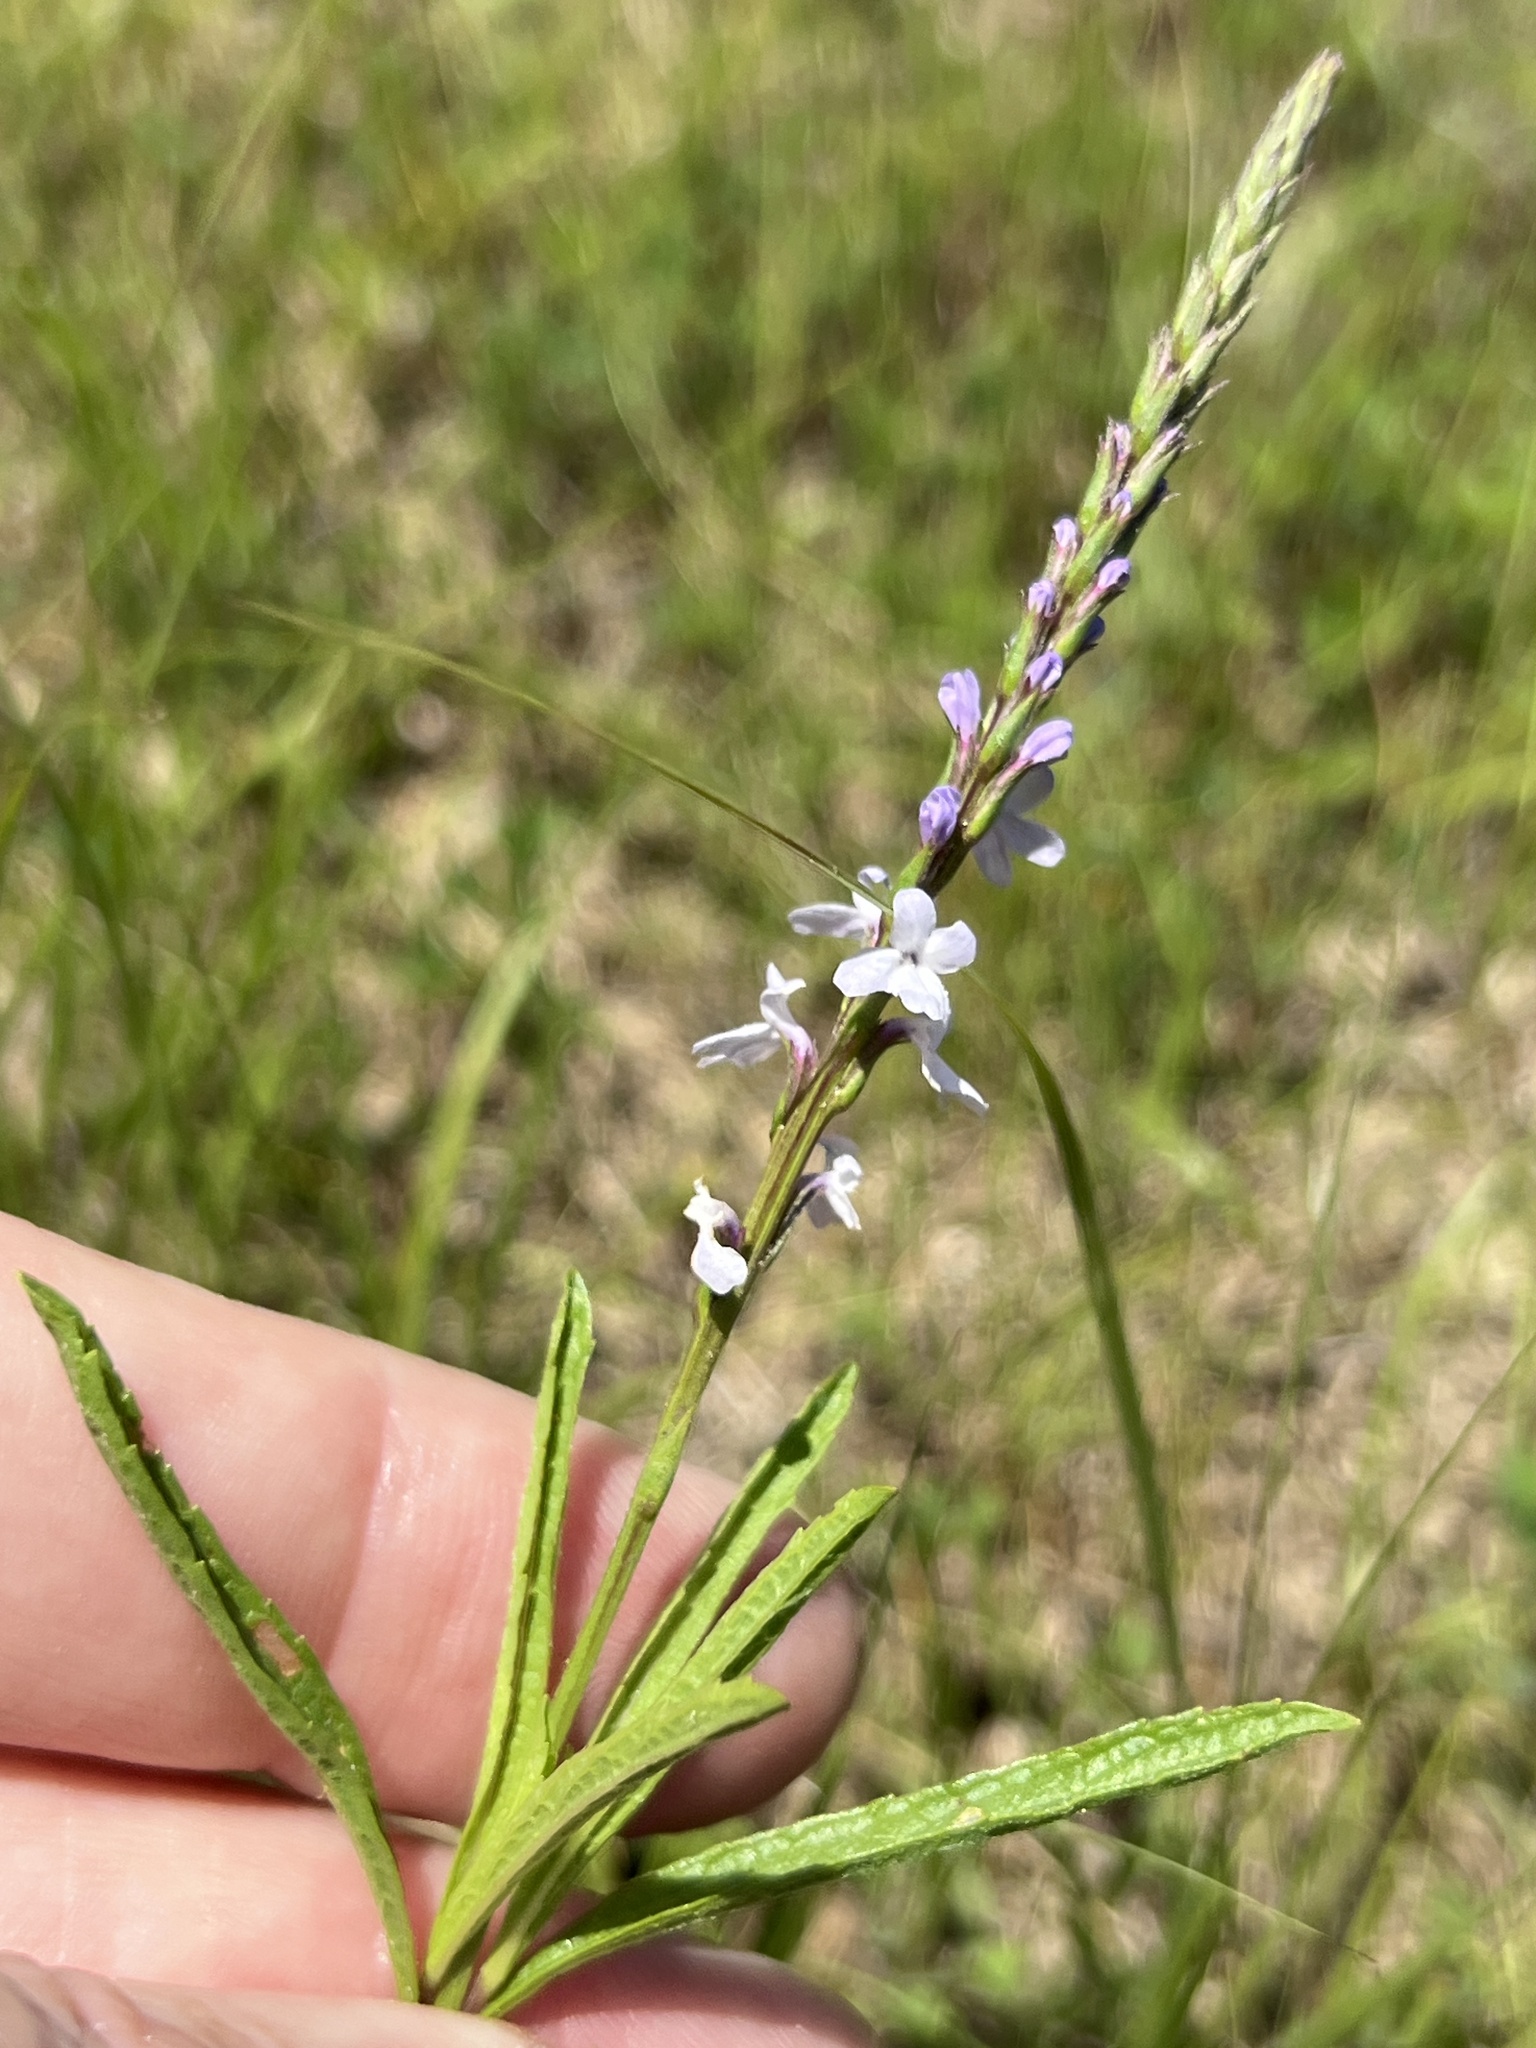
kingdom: Plantae
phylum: Tracheophyta
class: Magnoliopsida
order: Lamiales
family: Verbenaceae
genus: Verbena
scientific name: Verbena simplex
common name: Narrow-leaf vervain
